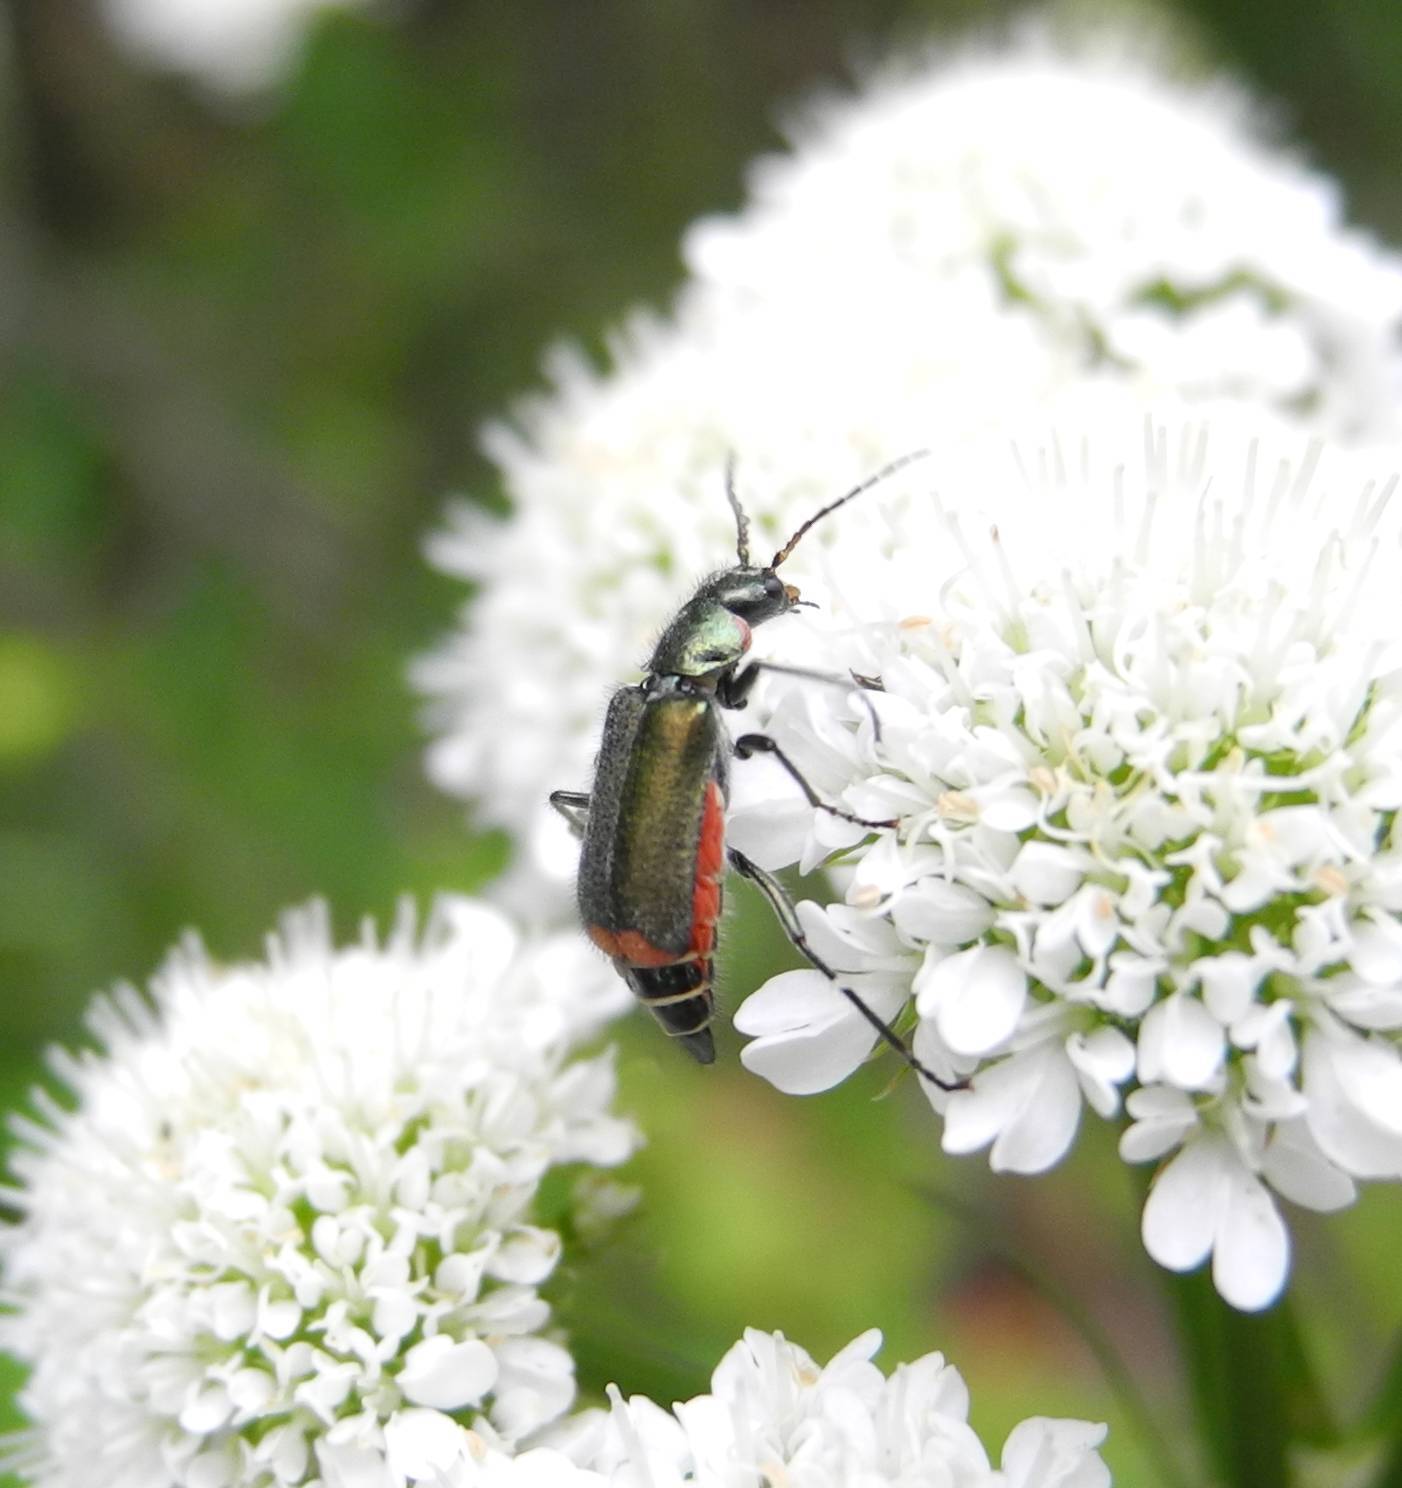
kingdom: Animalia
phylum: Arthropoda
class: Insecta
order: Coleoptera
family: Melyridae
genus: Malachius
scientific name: Malachius bipustulatus
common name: Malachite beetle
